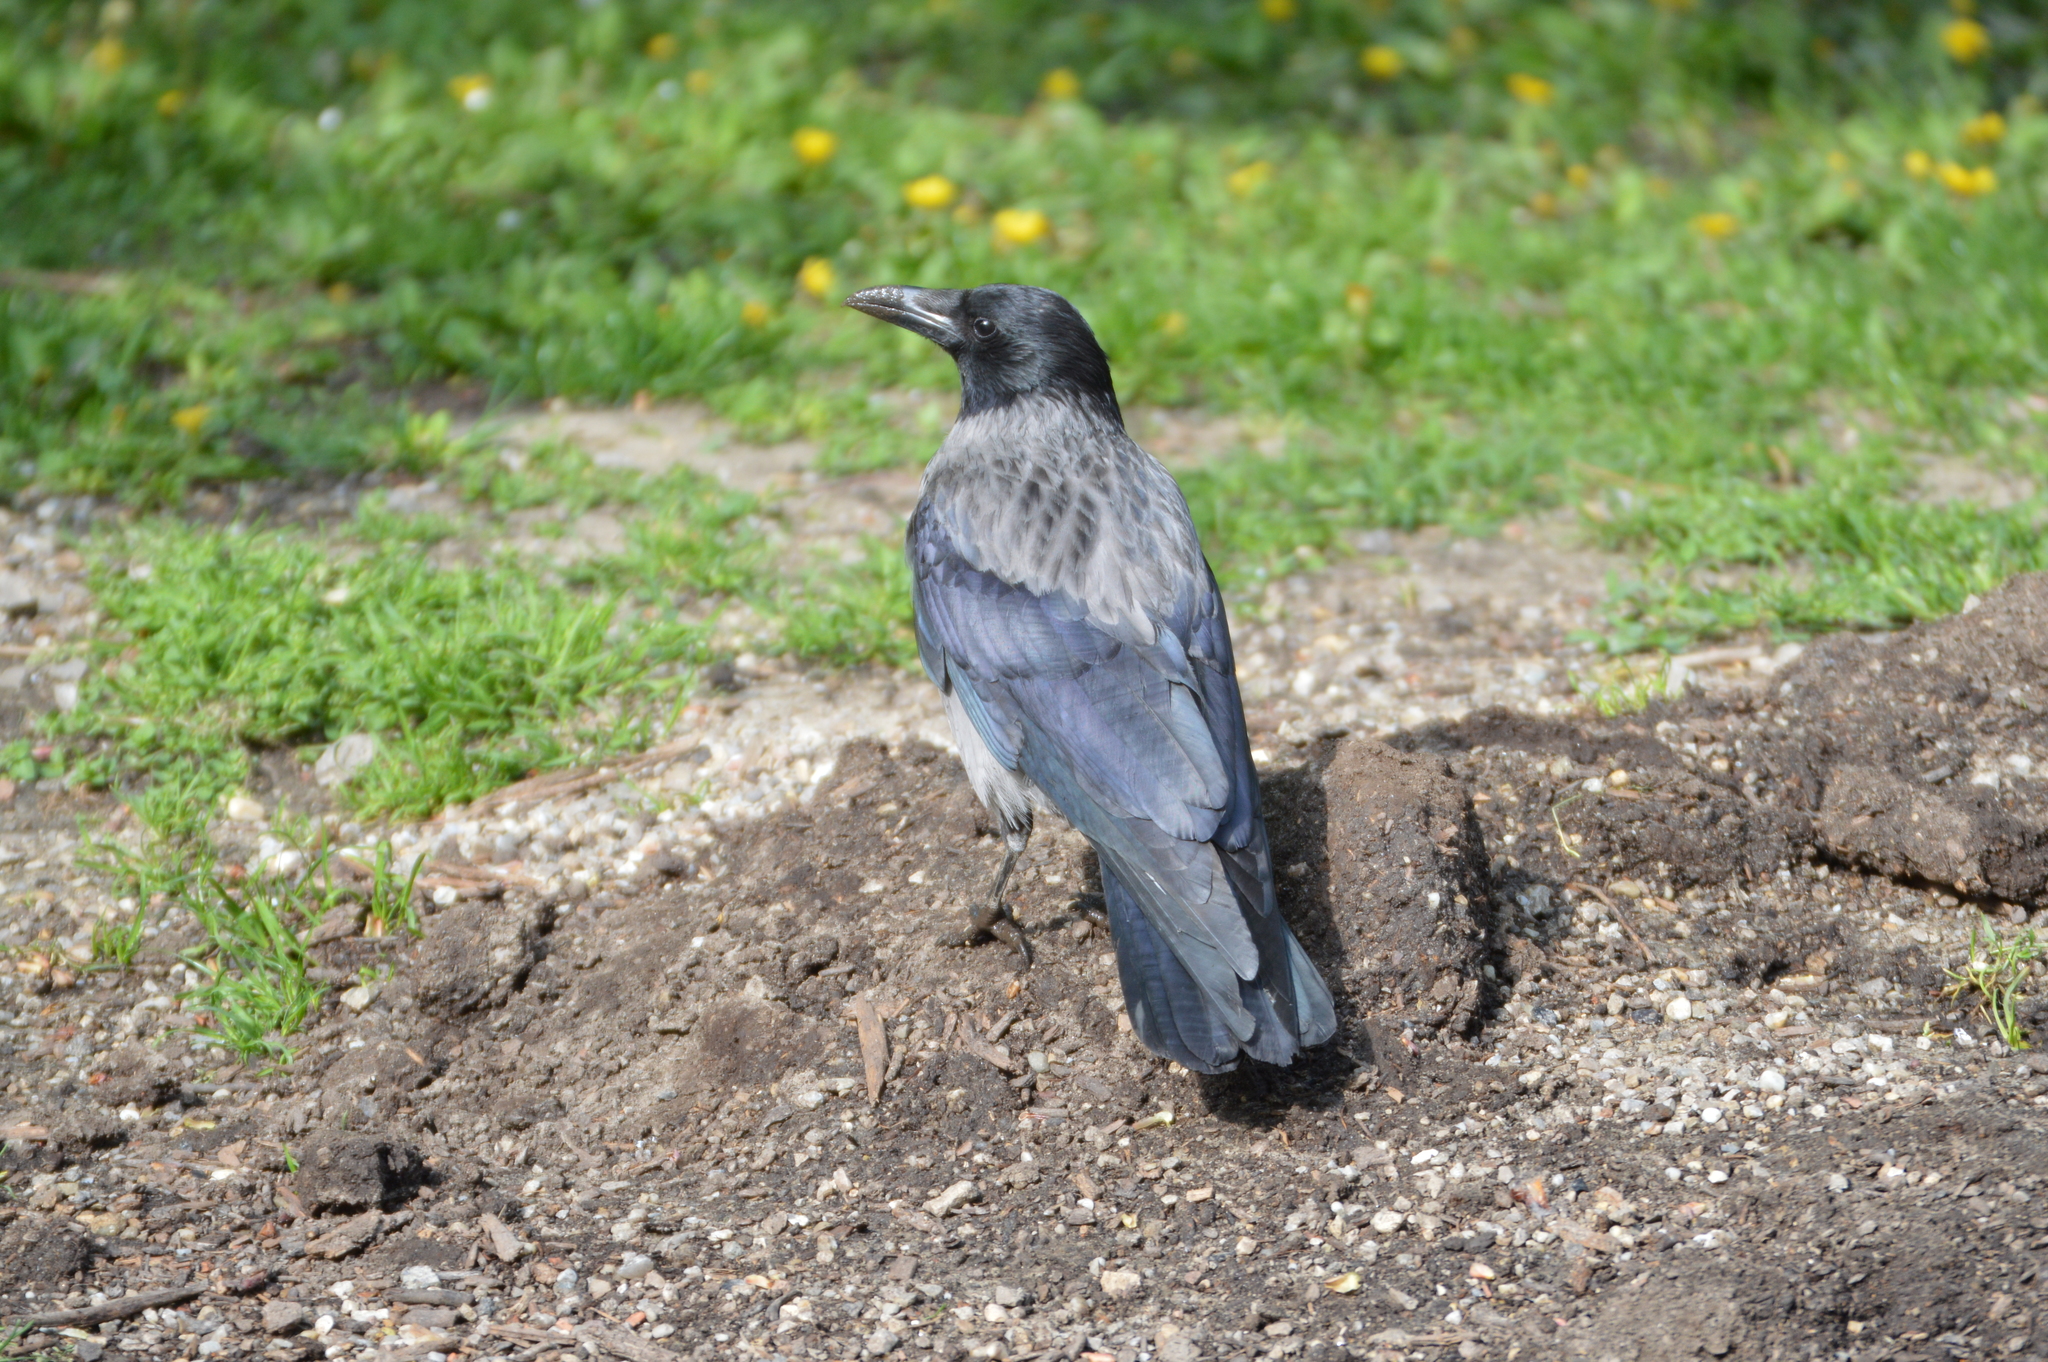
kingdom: Animalia
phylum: Chordata
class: Aves
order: Passeriformes
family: Corvidae
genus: Corvus
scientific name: Corvus
